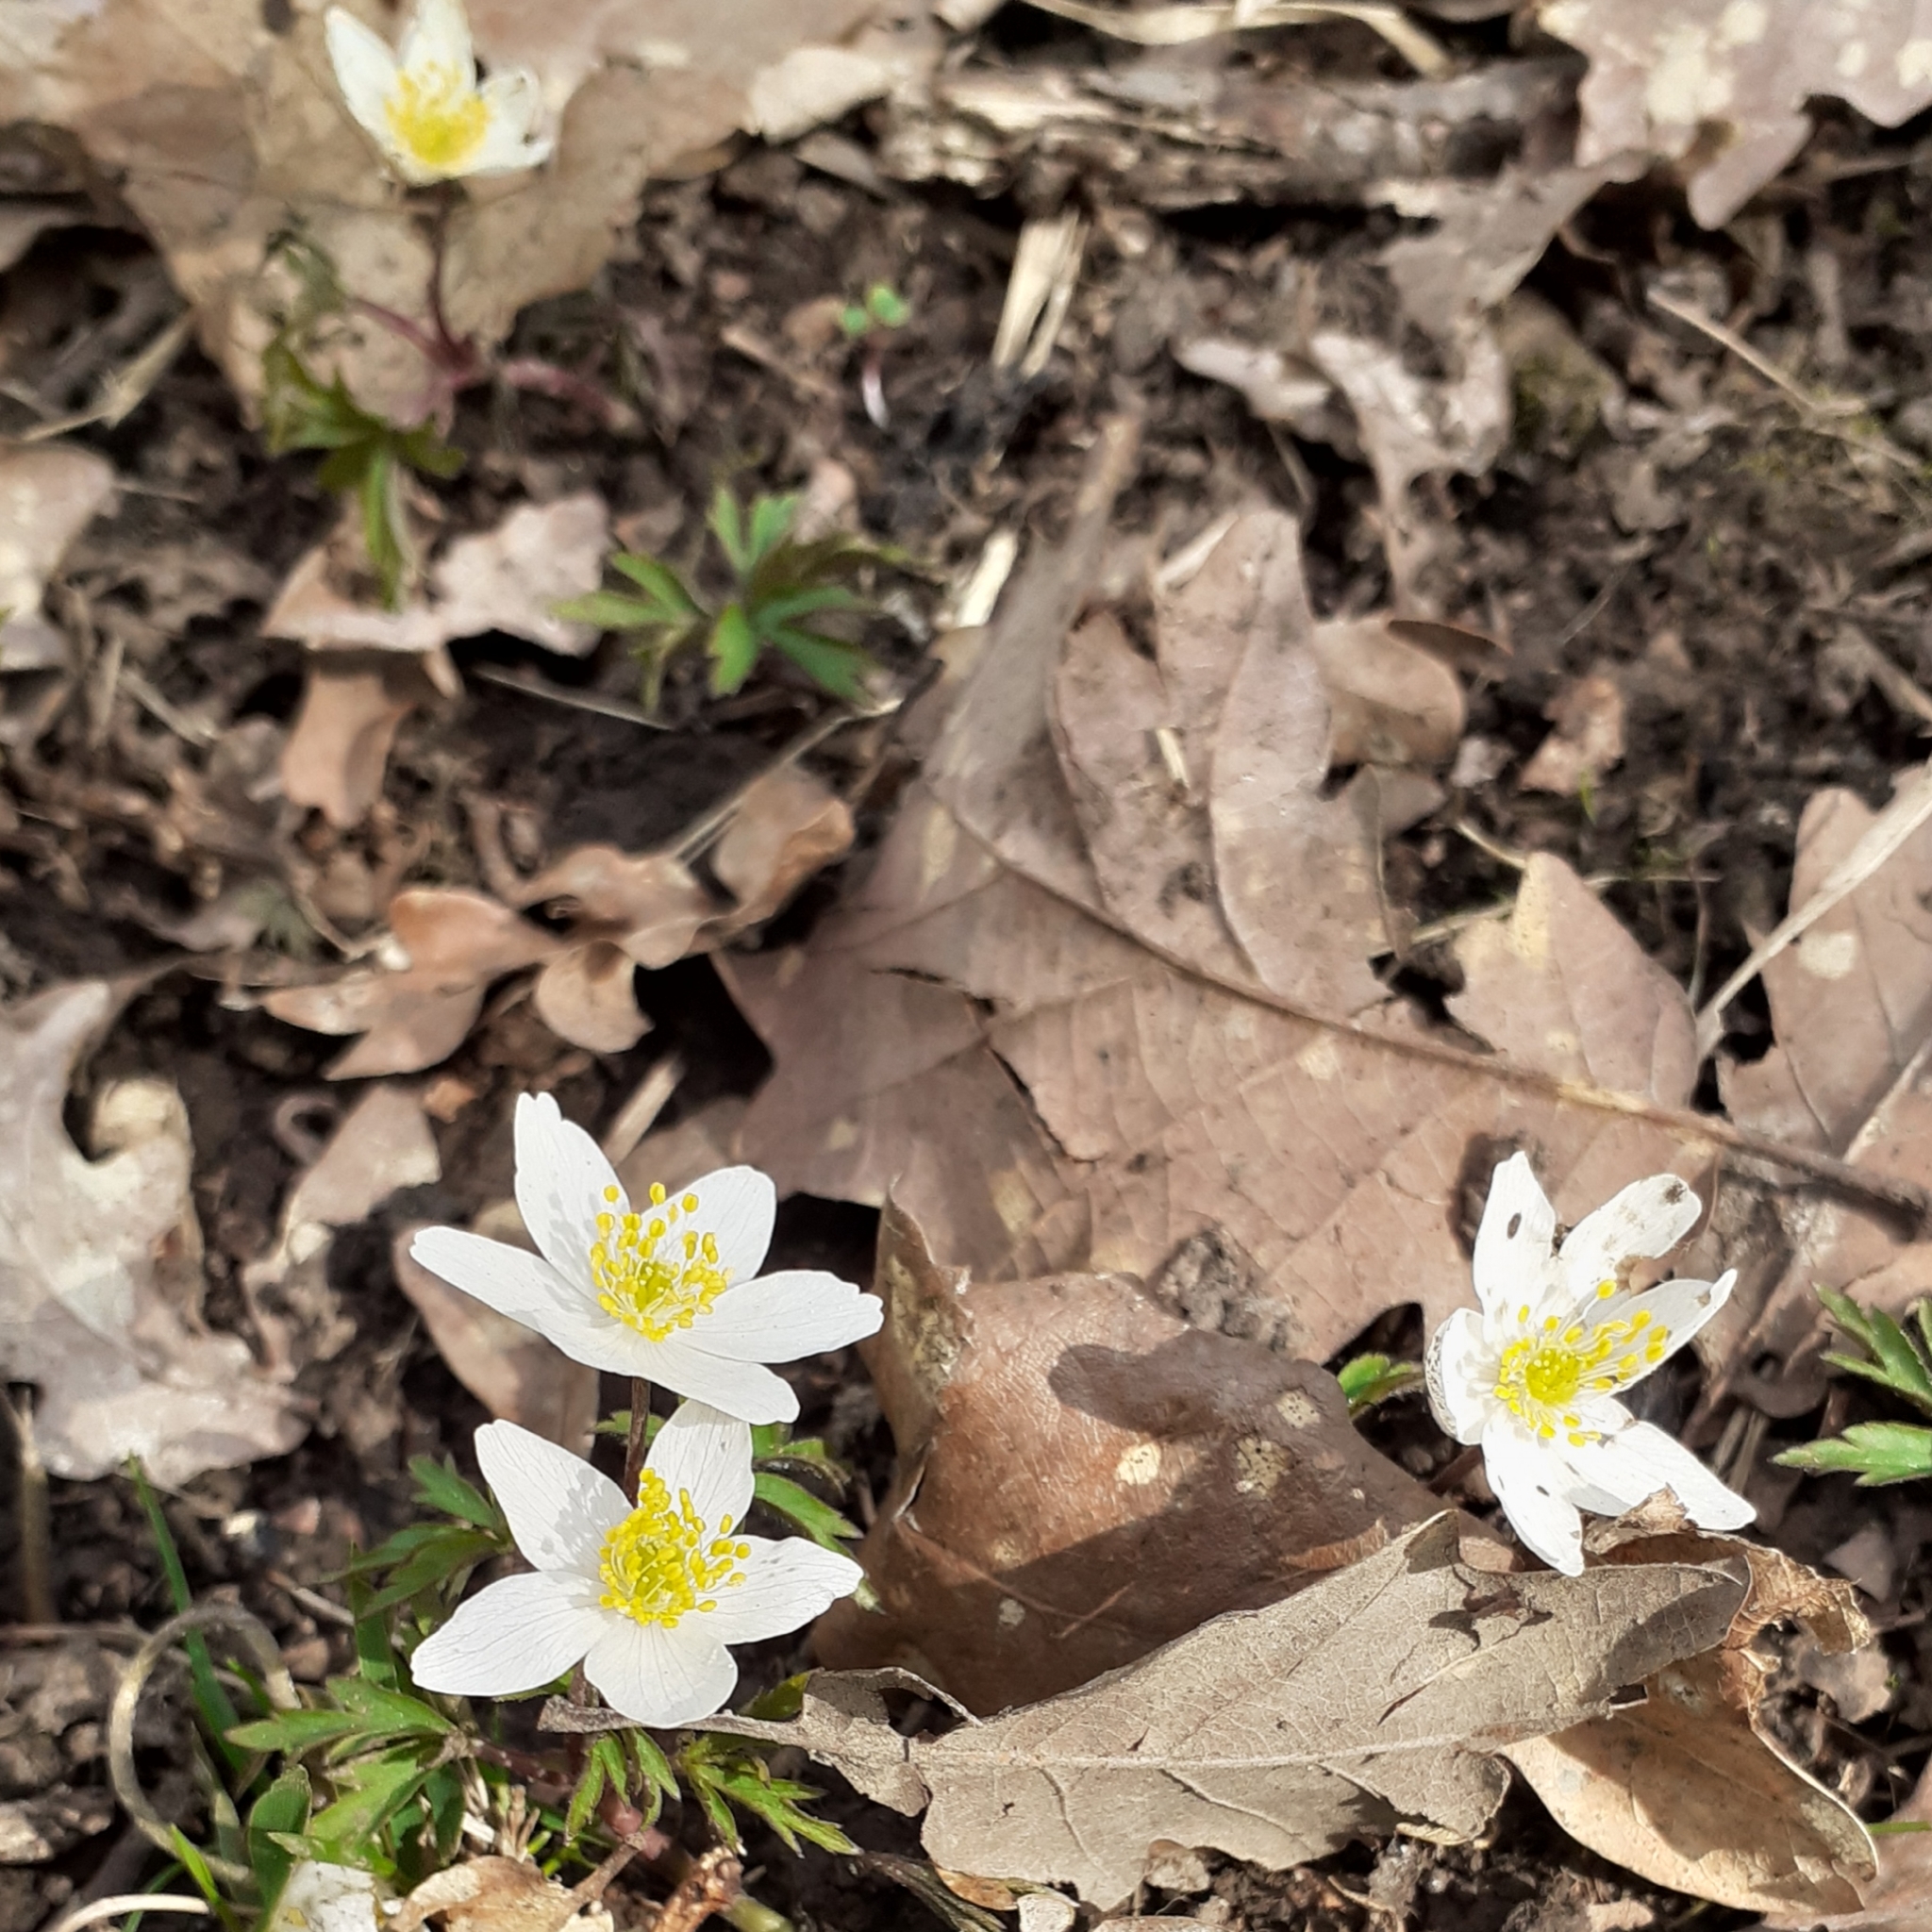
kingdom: Plantae
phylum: Tracheophyta
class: Magnoliopsida
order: Ranunculales
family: Ranunculaceae
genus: Anemone
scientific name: Anemone nemorosa
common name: Wood anemone
